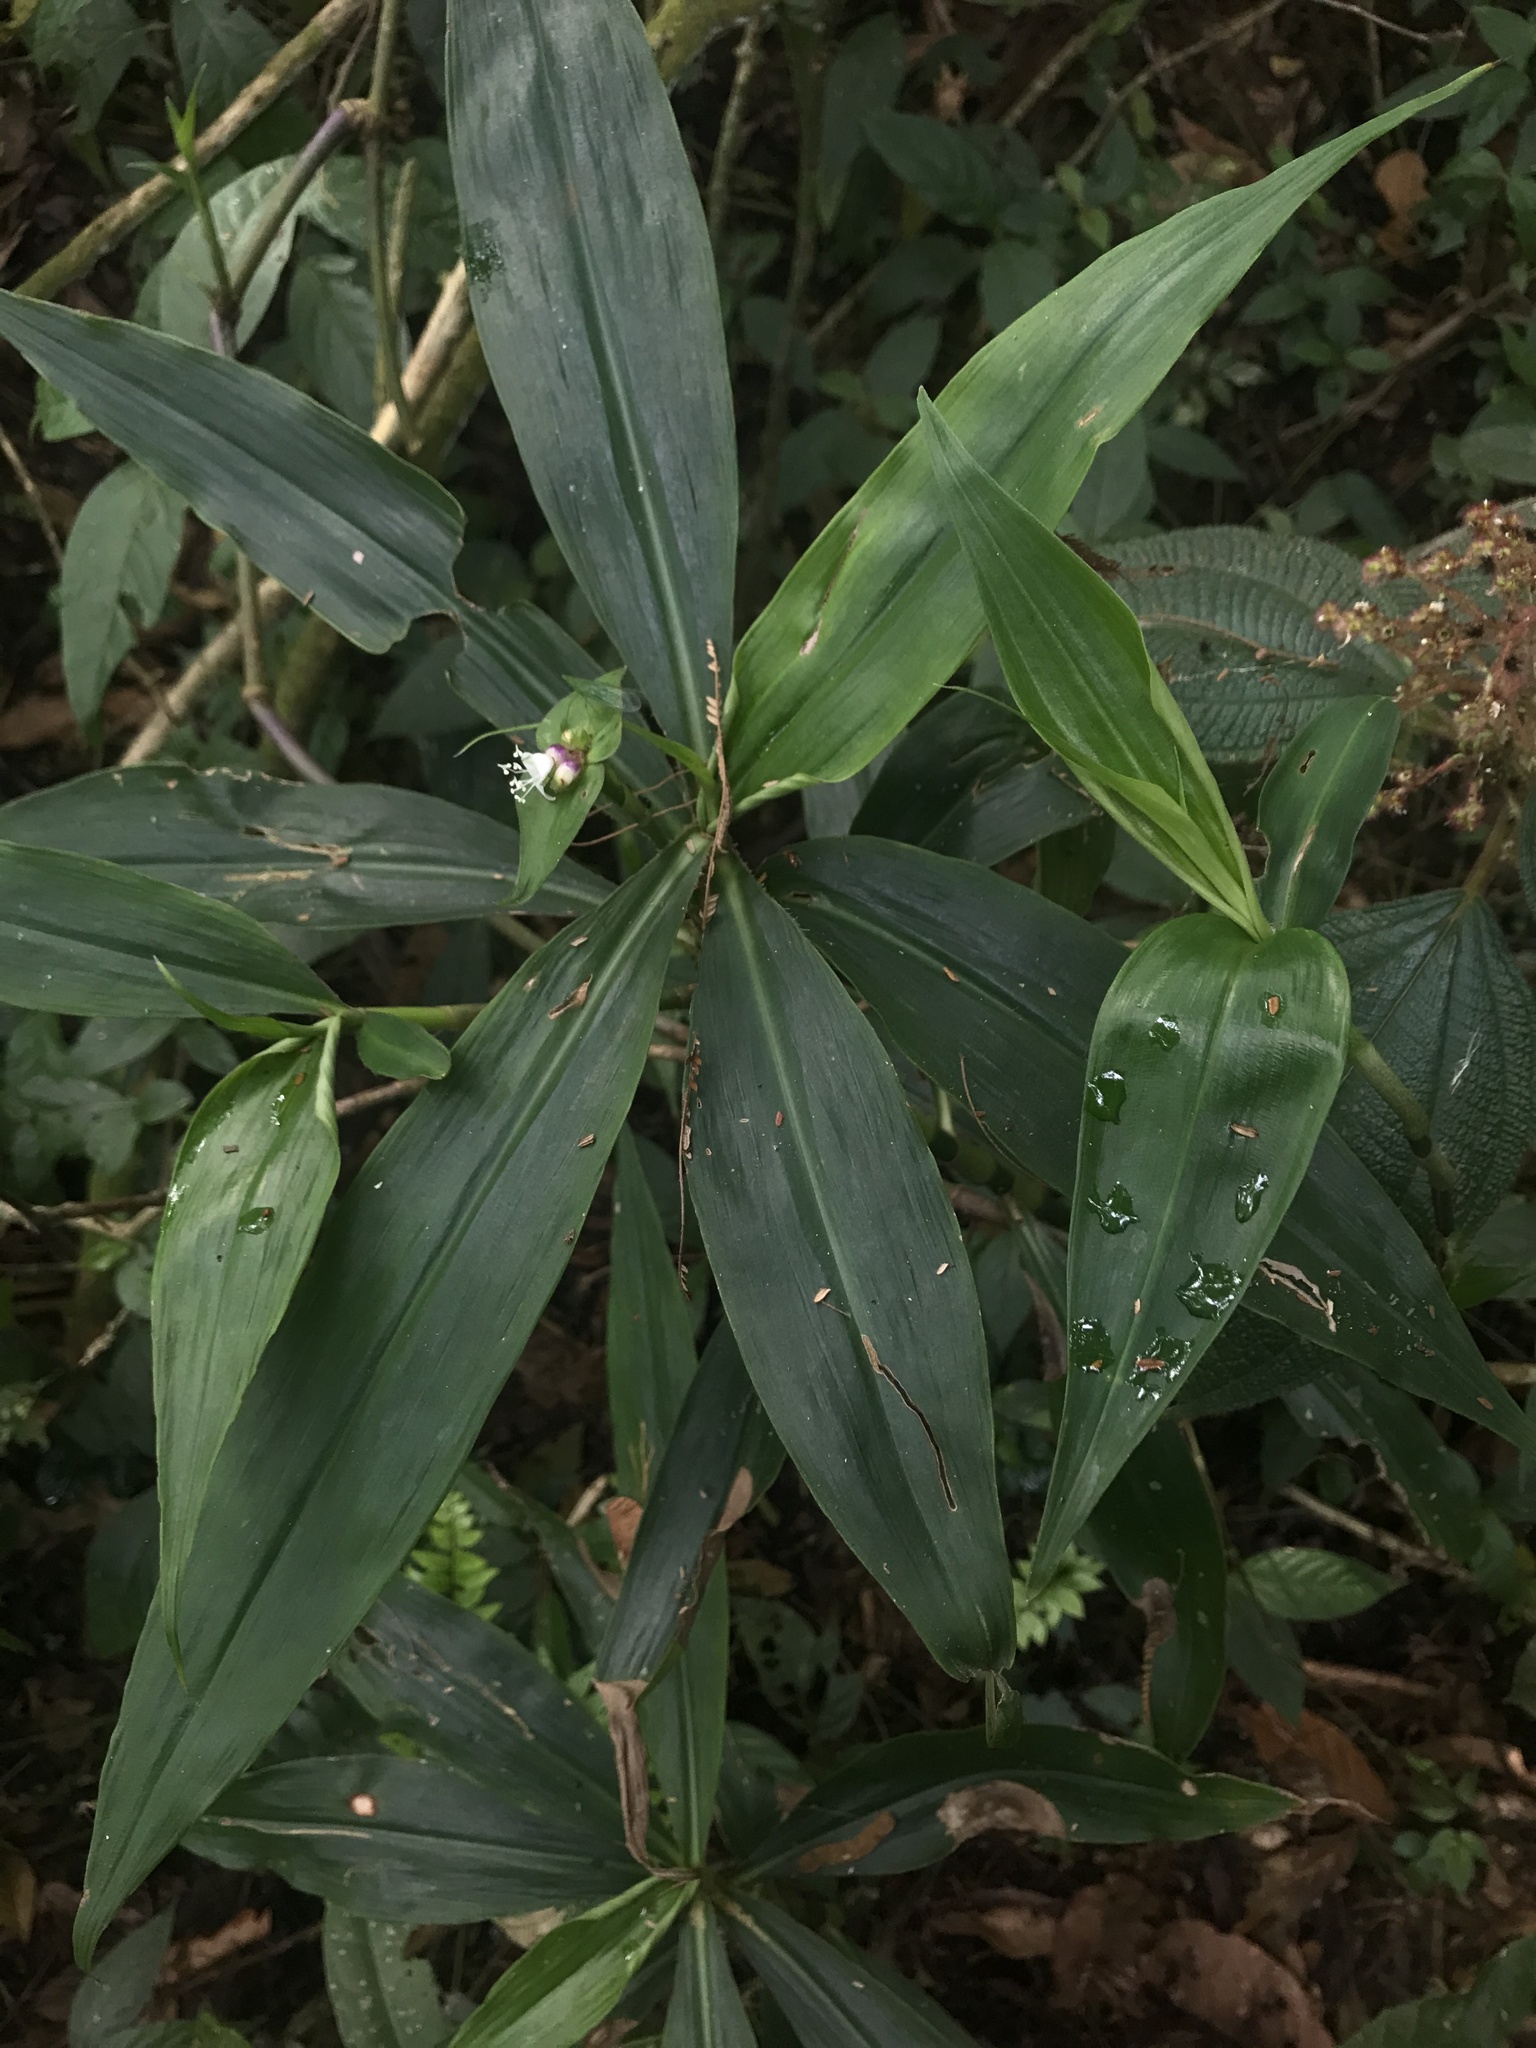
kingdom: Plantae
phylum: Tracheophyta
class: Liliopsida
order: Commelinales
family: Commelinaceae
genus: Tradescantia
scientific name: Tradescantia zanonia
